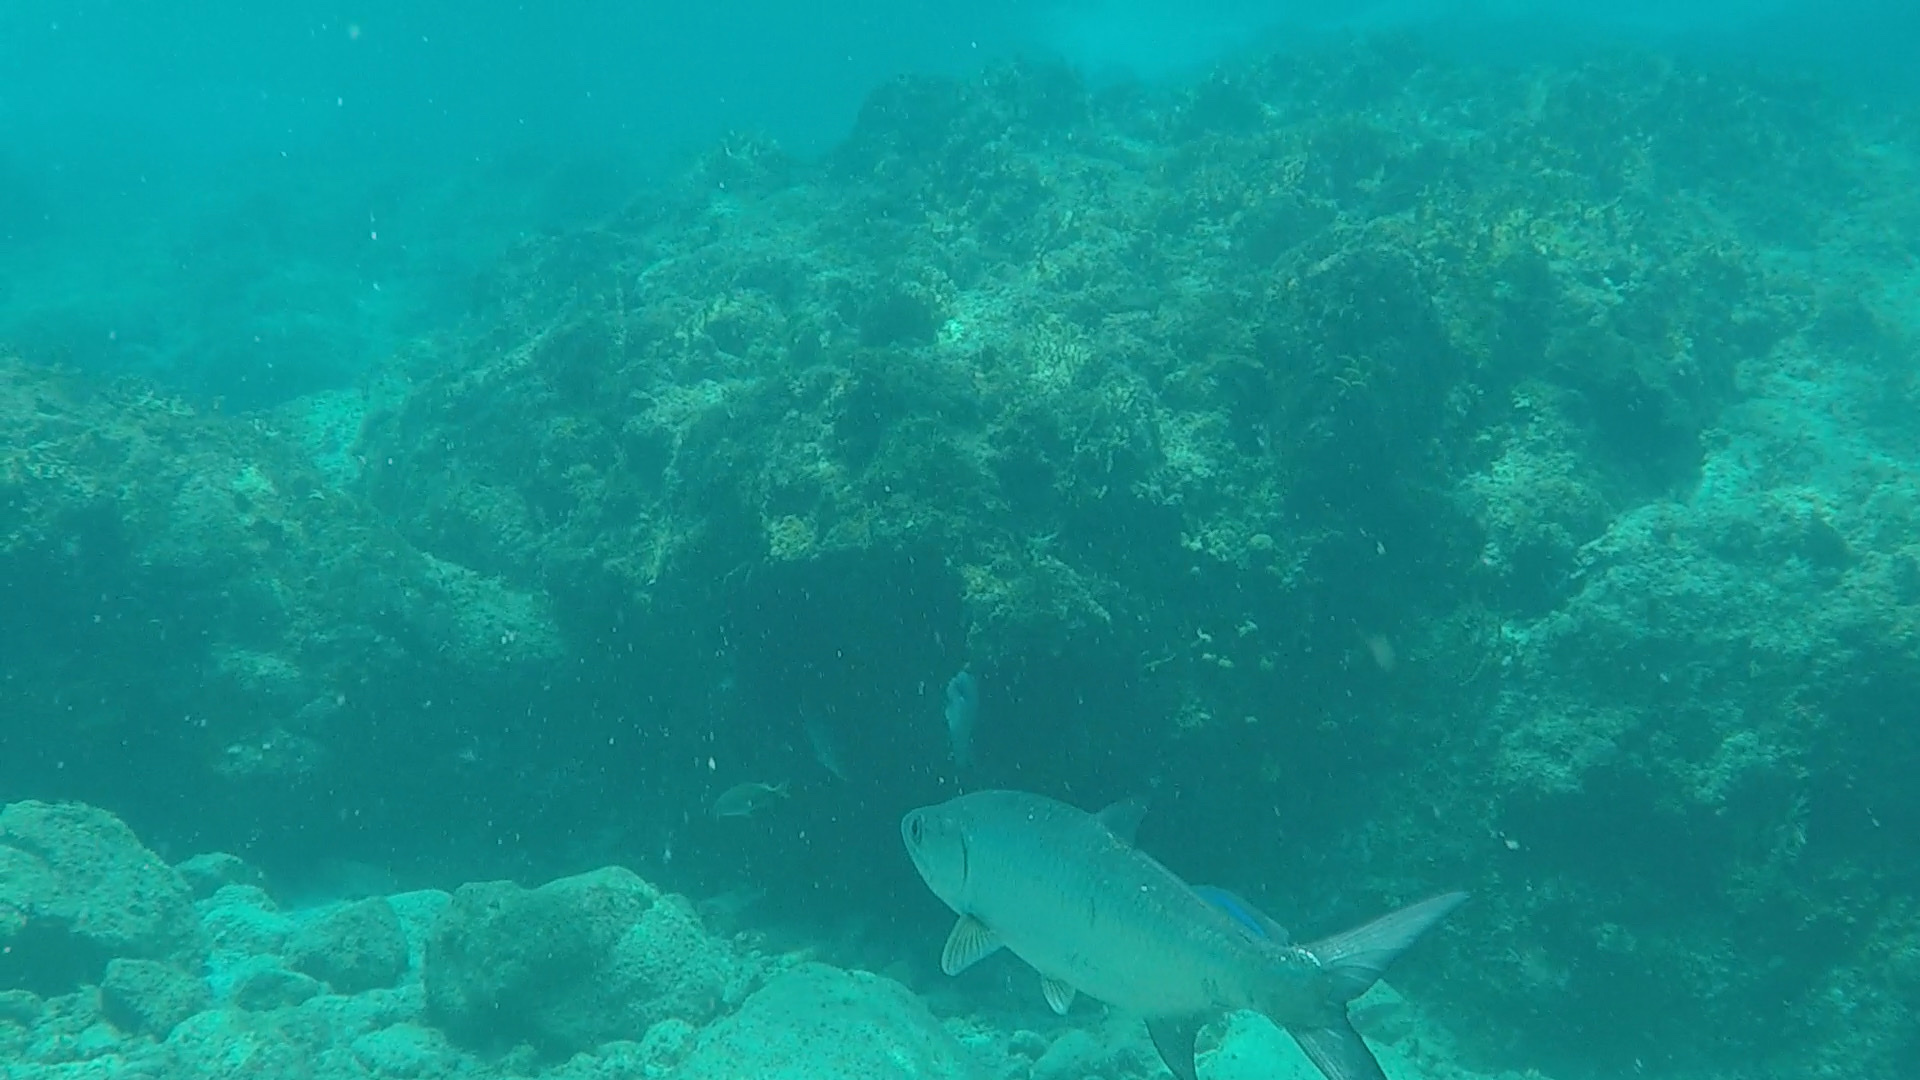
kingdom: Animalia
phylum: Chordata
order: Elopiformes
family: Megalopidae
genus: Megalops
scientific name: Megalops atlanticus
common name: Tarpon
